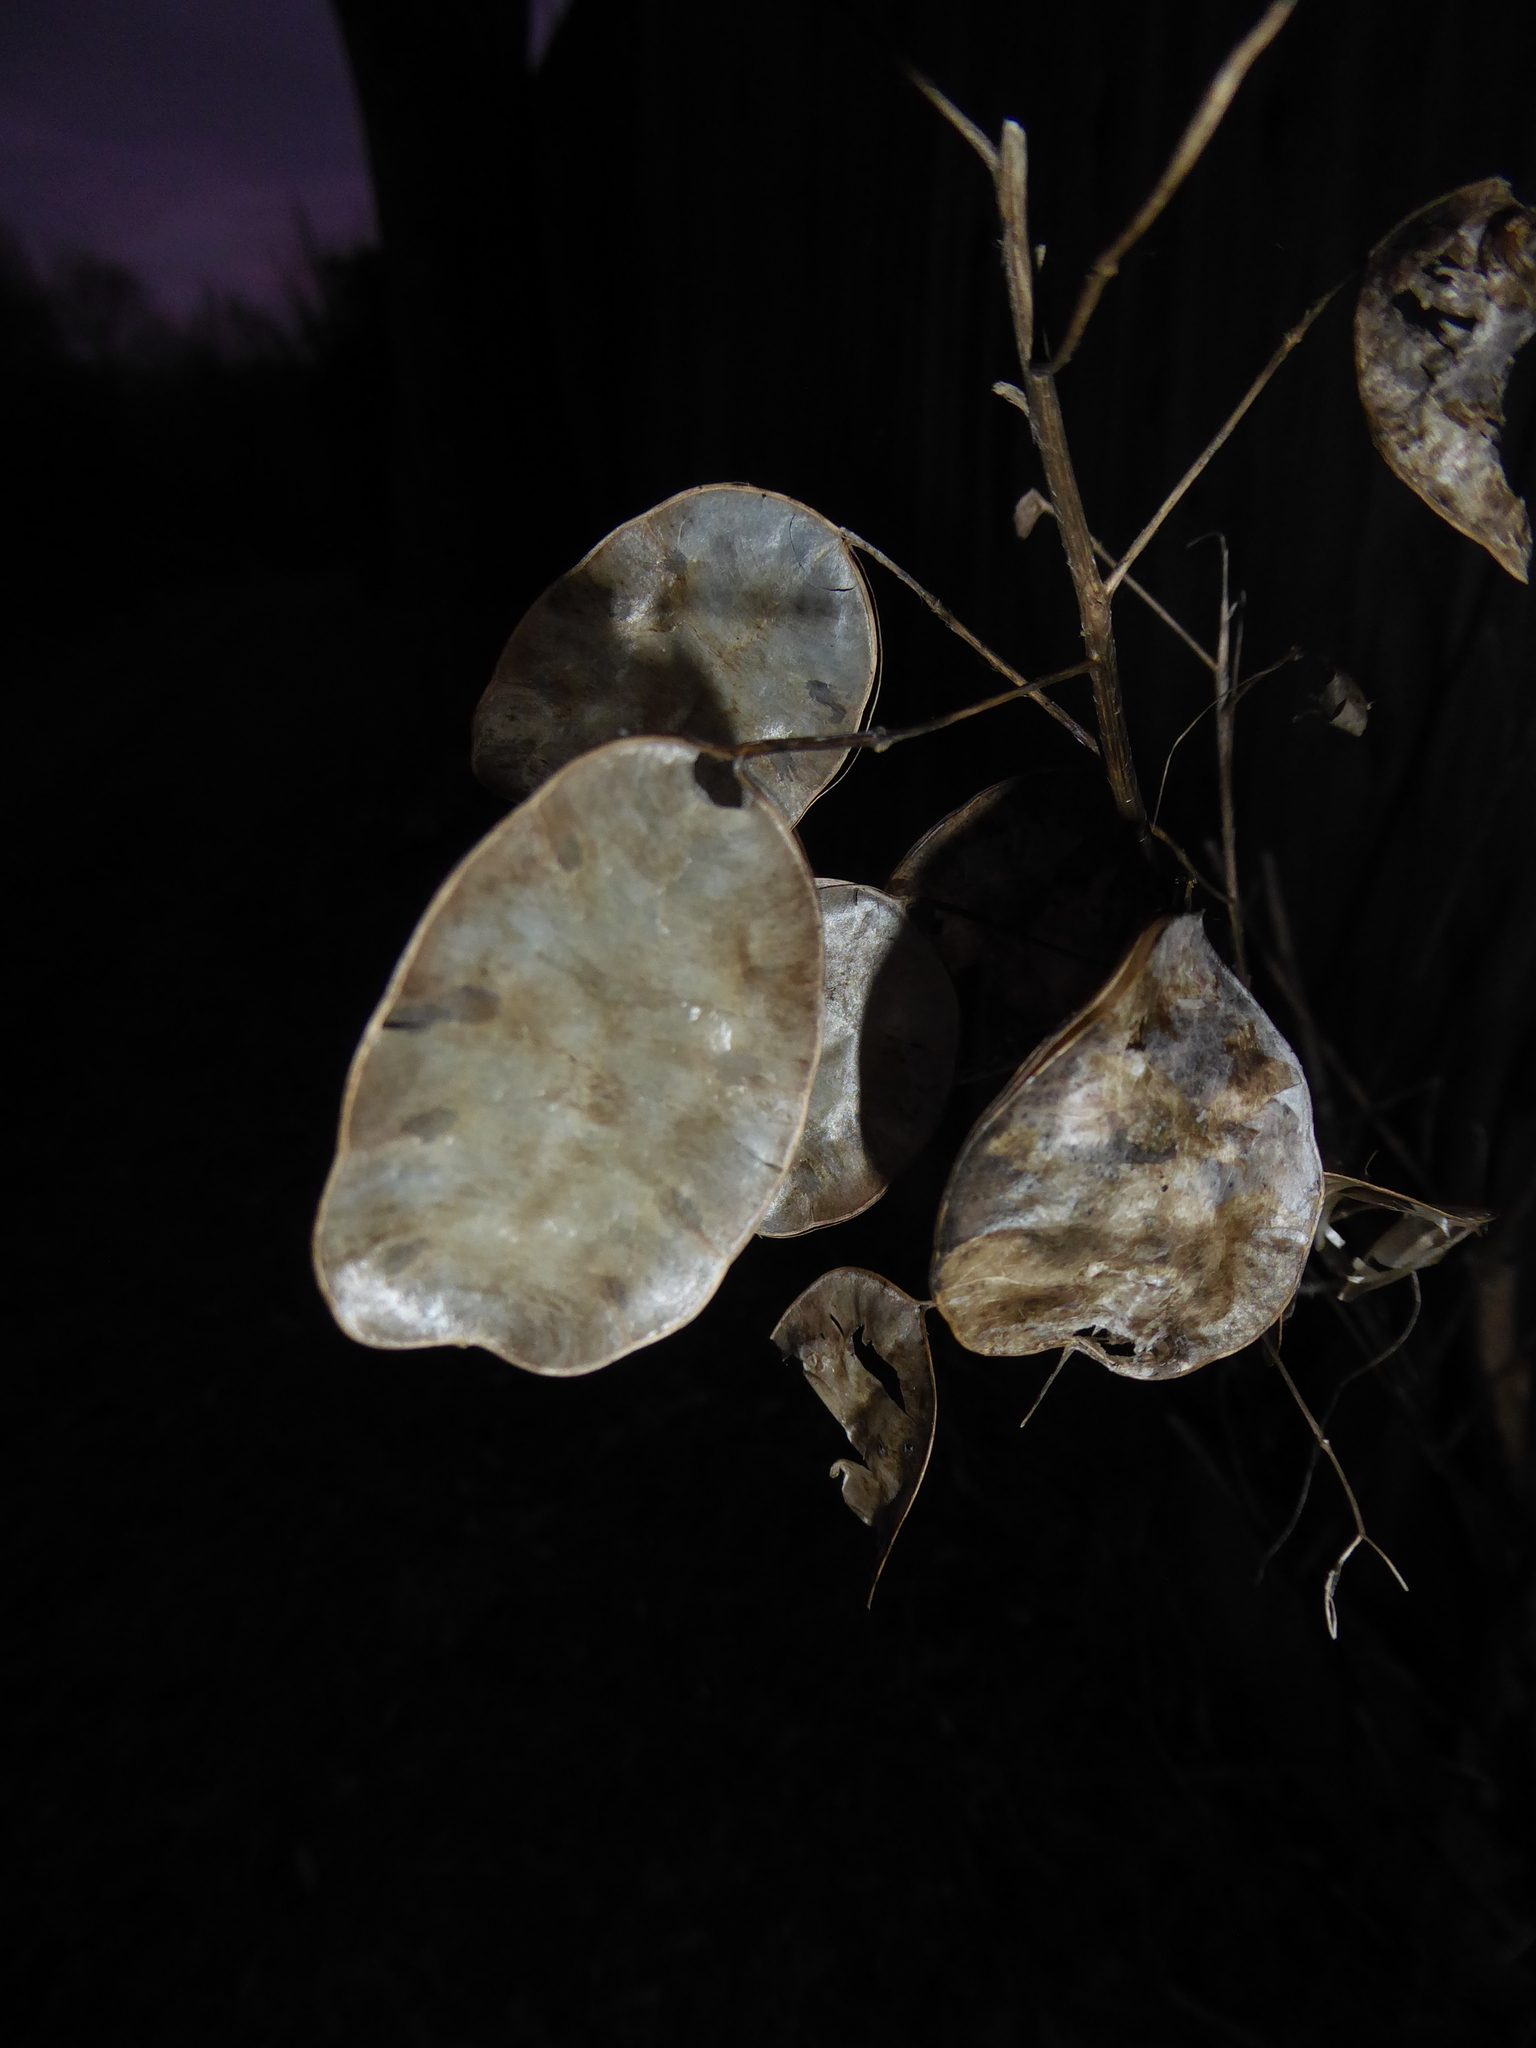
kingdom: Plantae
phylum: Tracheophyta
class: Magnoliopsida
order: Brassicales
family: Brassicaceae
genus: Lunaria
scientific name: Lunaria annua
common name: Honesty
